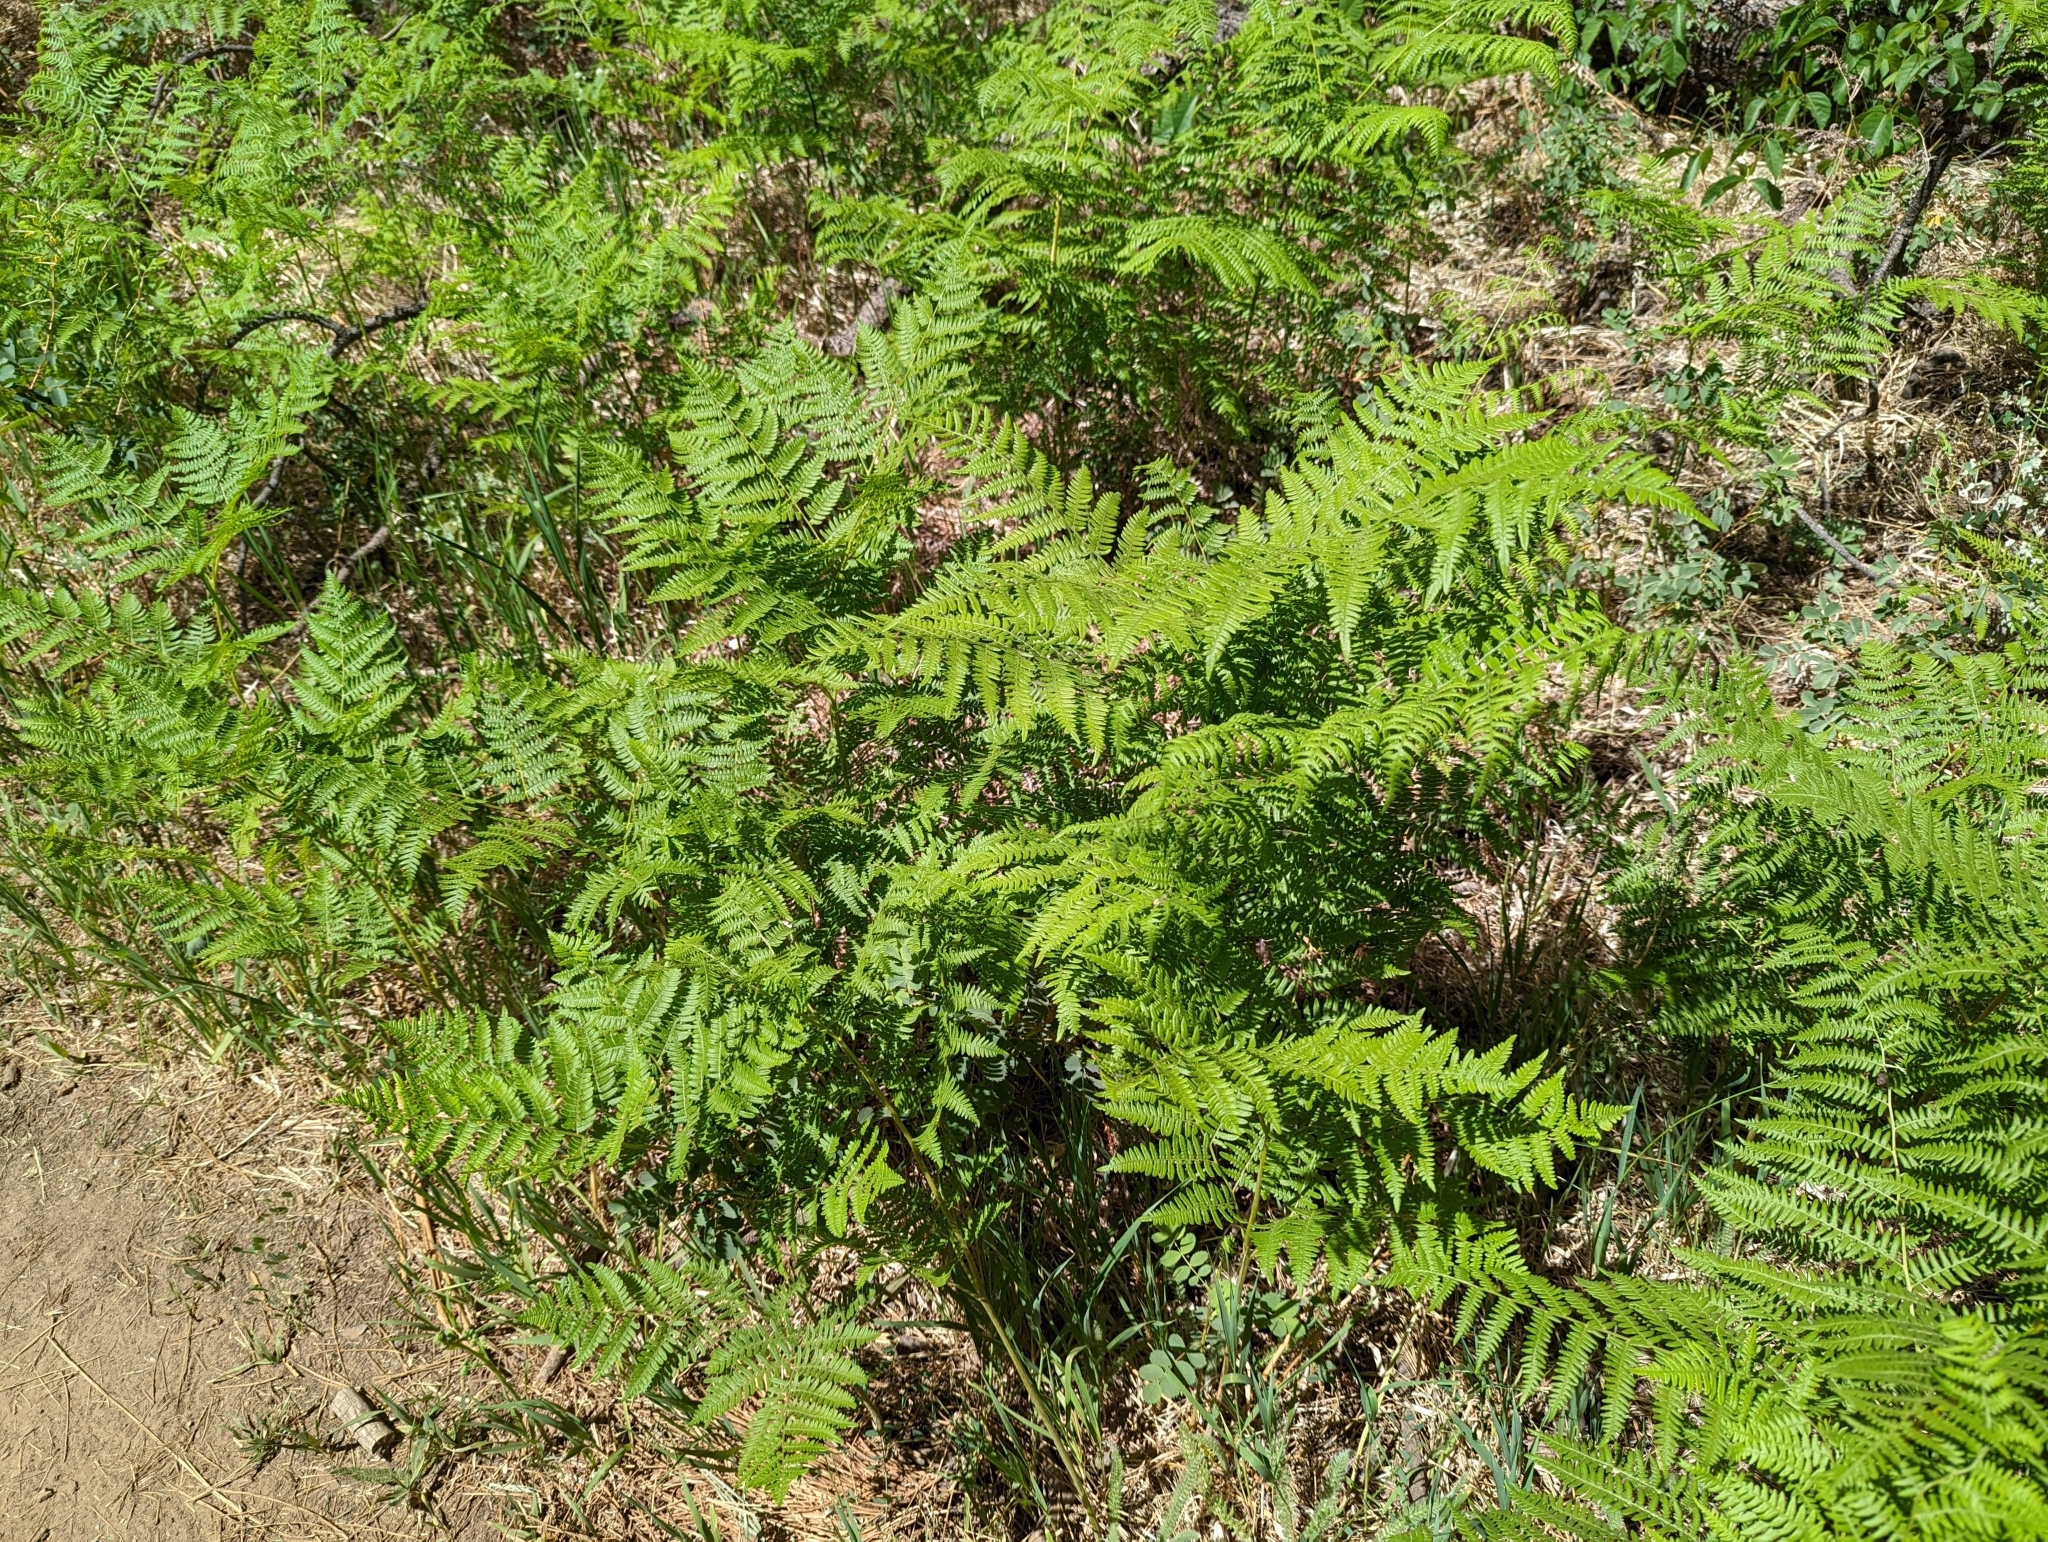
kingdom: Plantae
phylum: Tracheophyta
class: Polypodiopsida
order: Polypodiales
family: Dennstaedtiaceae
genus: Pteridium
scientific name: Pteridium aquilinum
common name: Bracken
